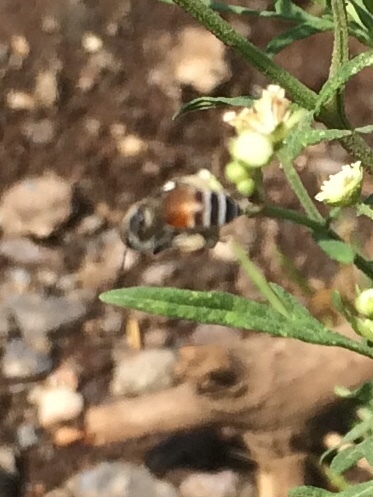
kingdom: Animalia
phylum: Arthropoda
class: Insecta
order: Hymenoptera
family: Apidae
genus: Apis
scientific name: Apis florea
